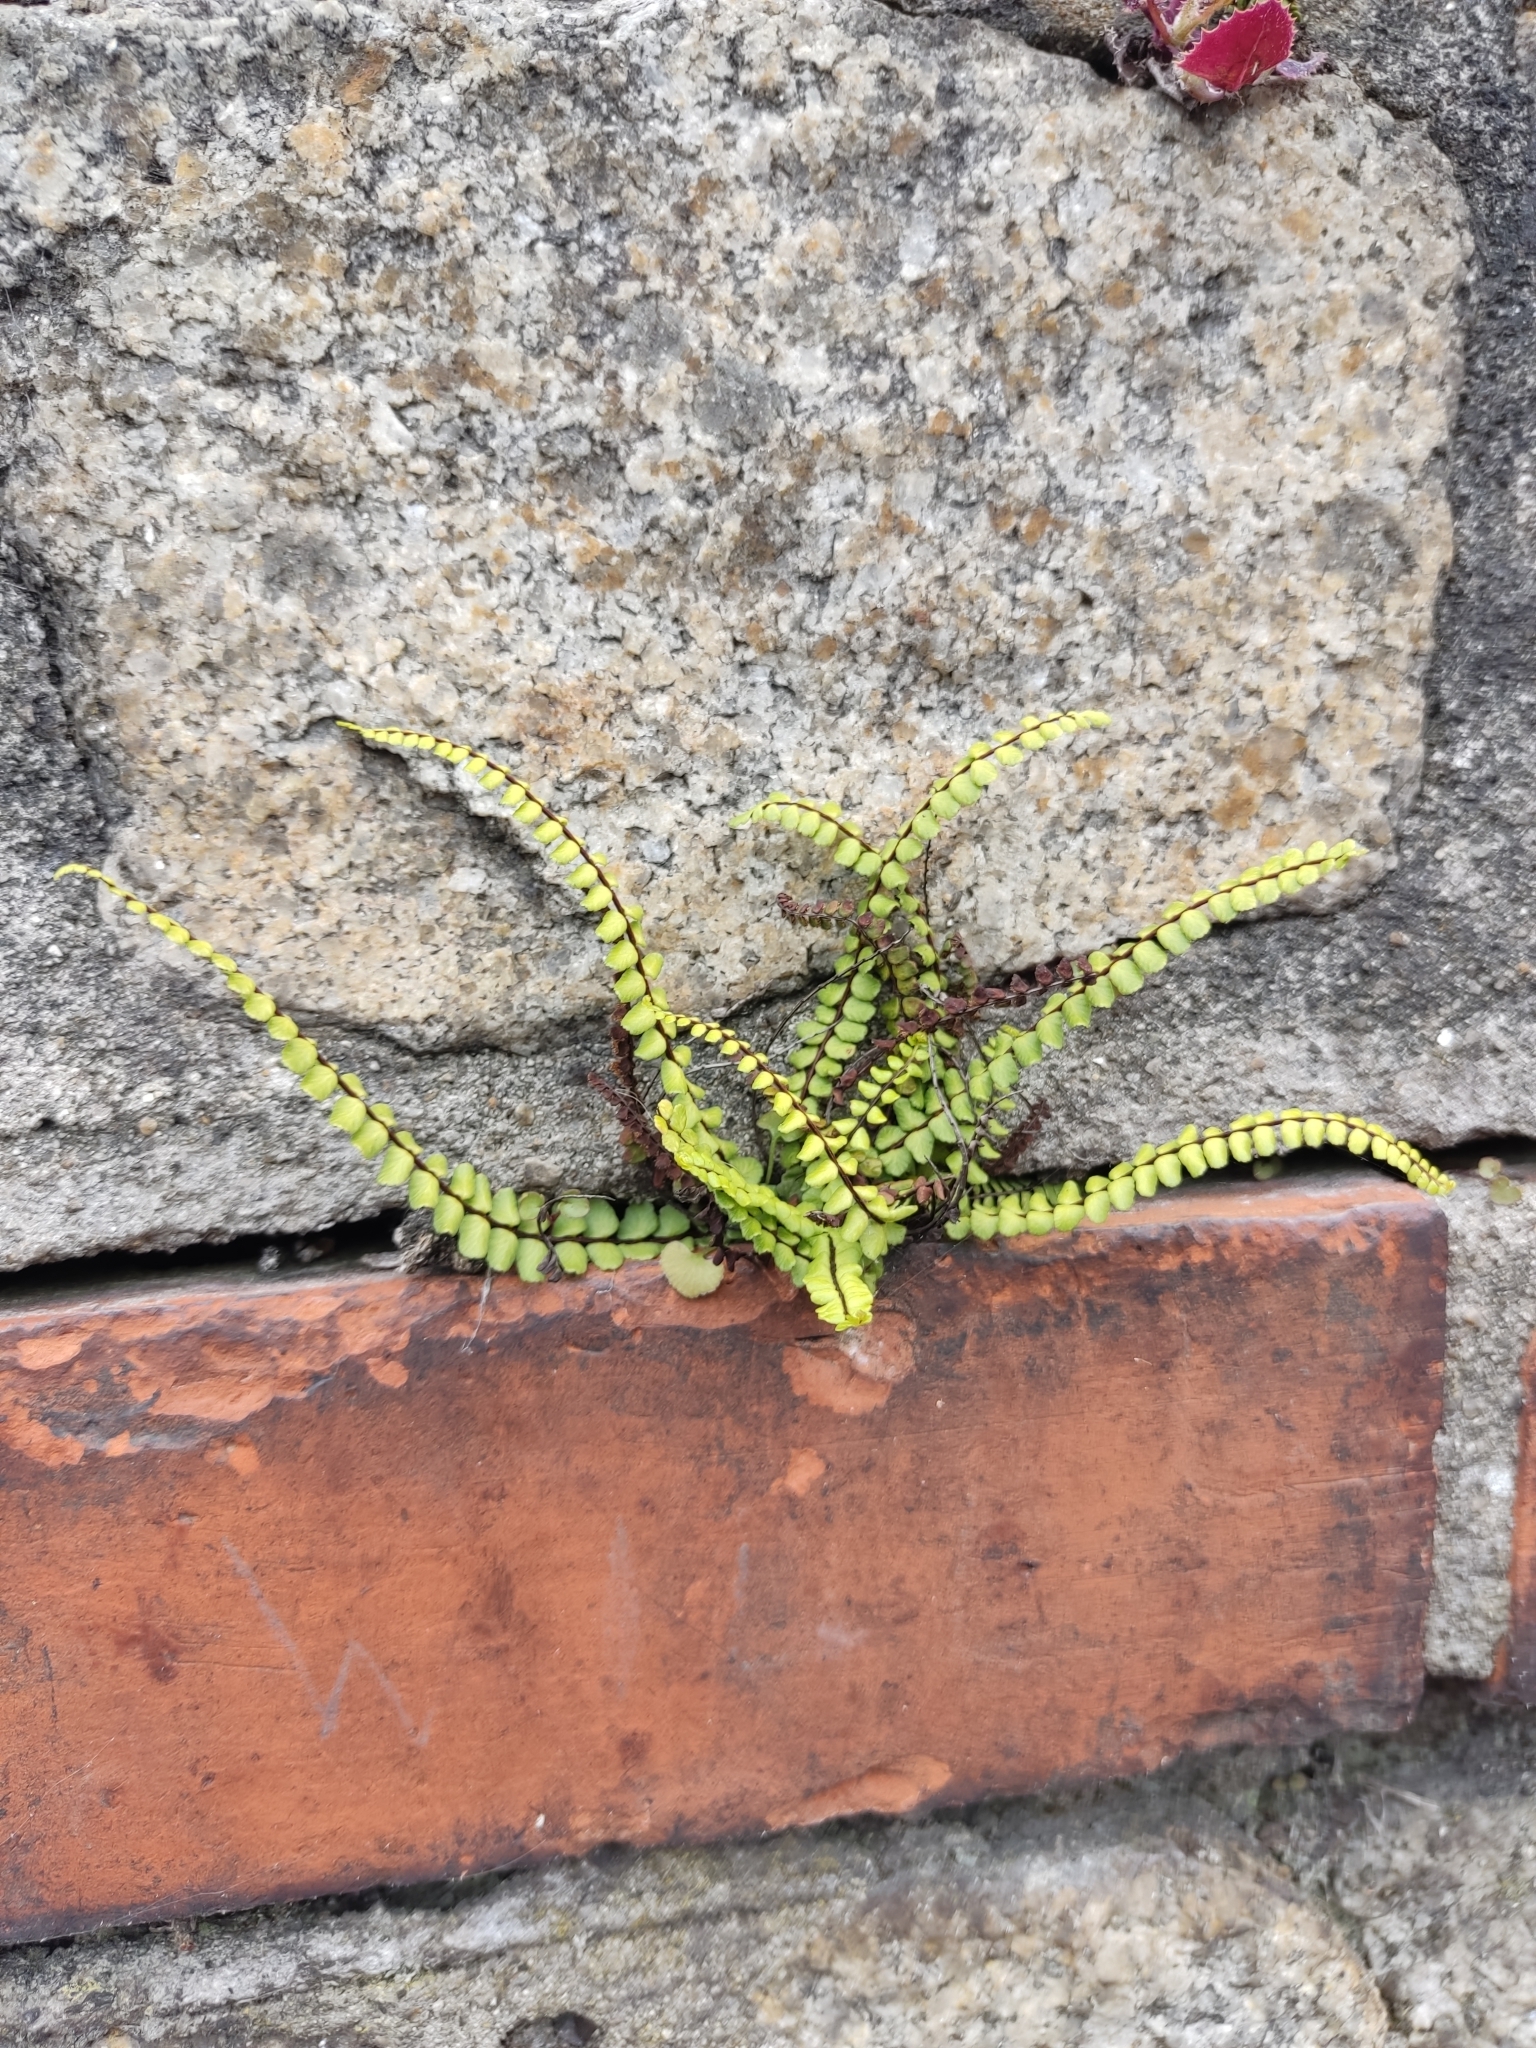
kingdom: Plantae
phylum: Tracheophyta
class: Polypodiopsida
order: Polypodiales
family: Aspleniaceae
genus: Asplenium
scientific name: Asplenium trichomanes
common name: Maidenhair spleenwort
